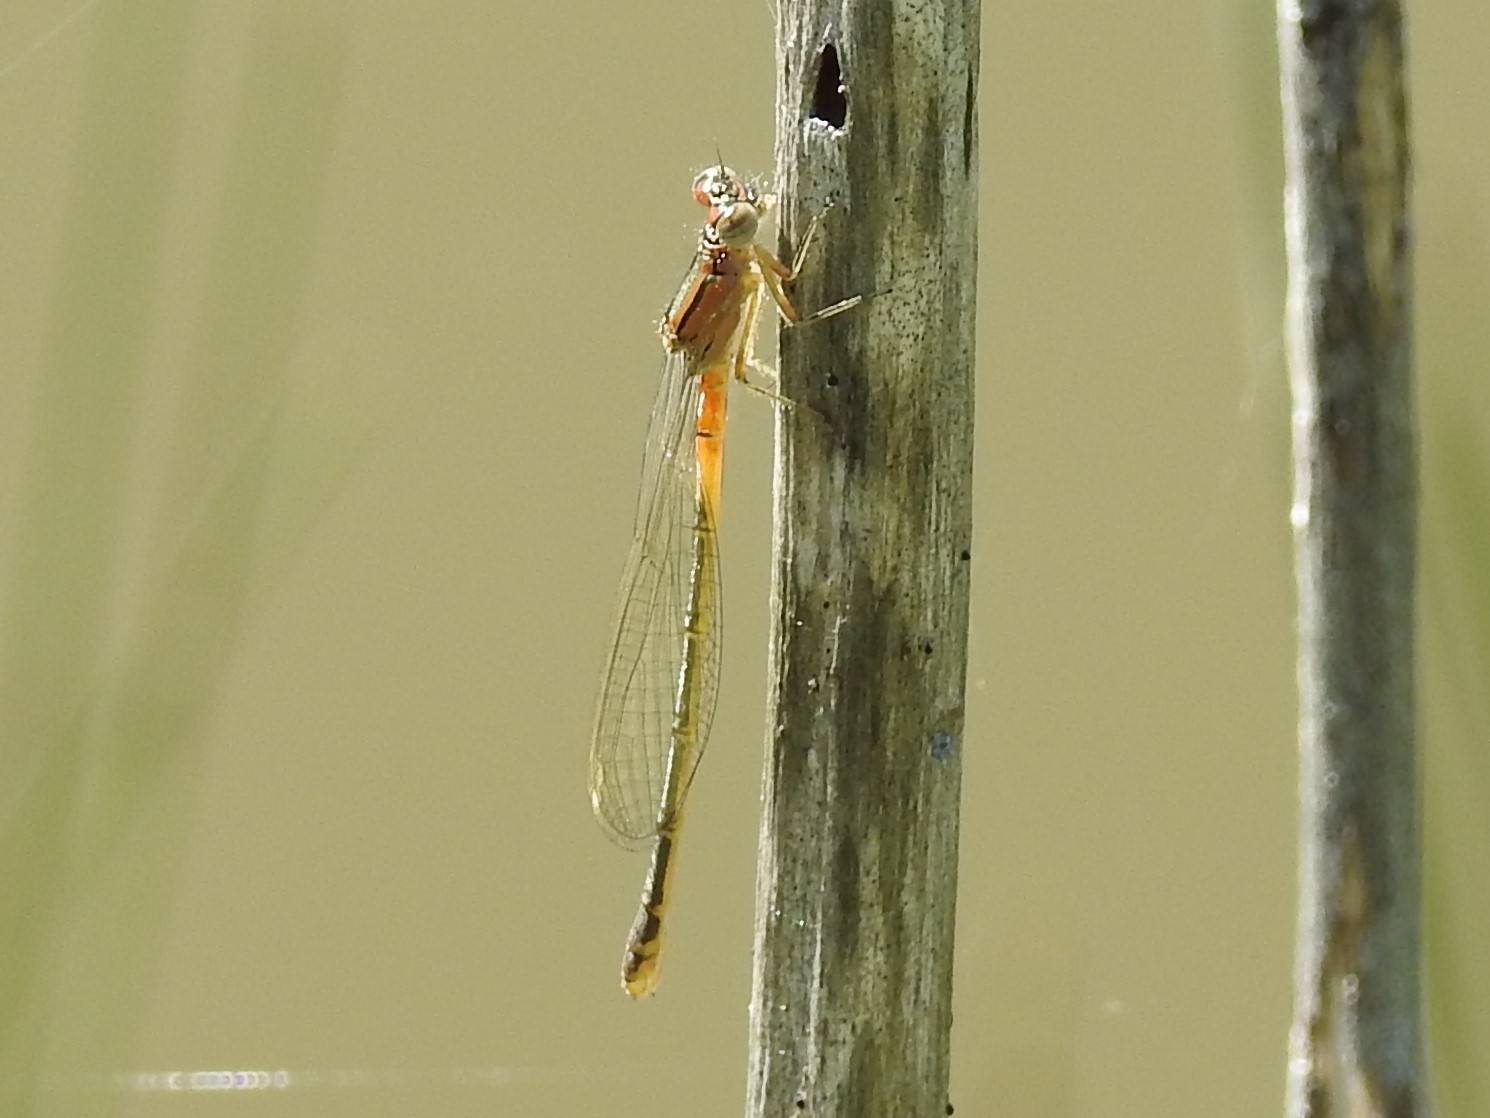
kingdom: Animalia
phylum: Arthropoda
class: Insecta
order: Odonata
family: Coenagrionidae
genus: Ischnura
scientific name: Ischnura verticalis
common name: Eastern forktail
